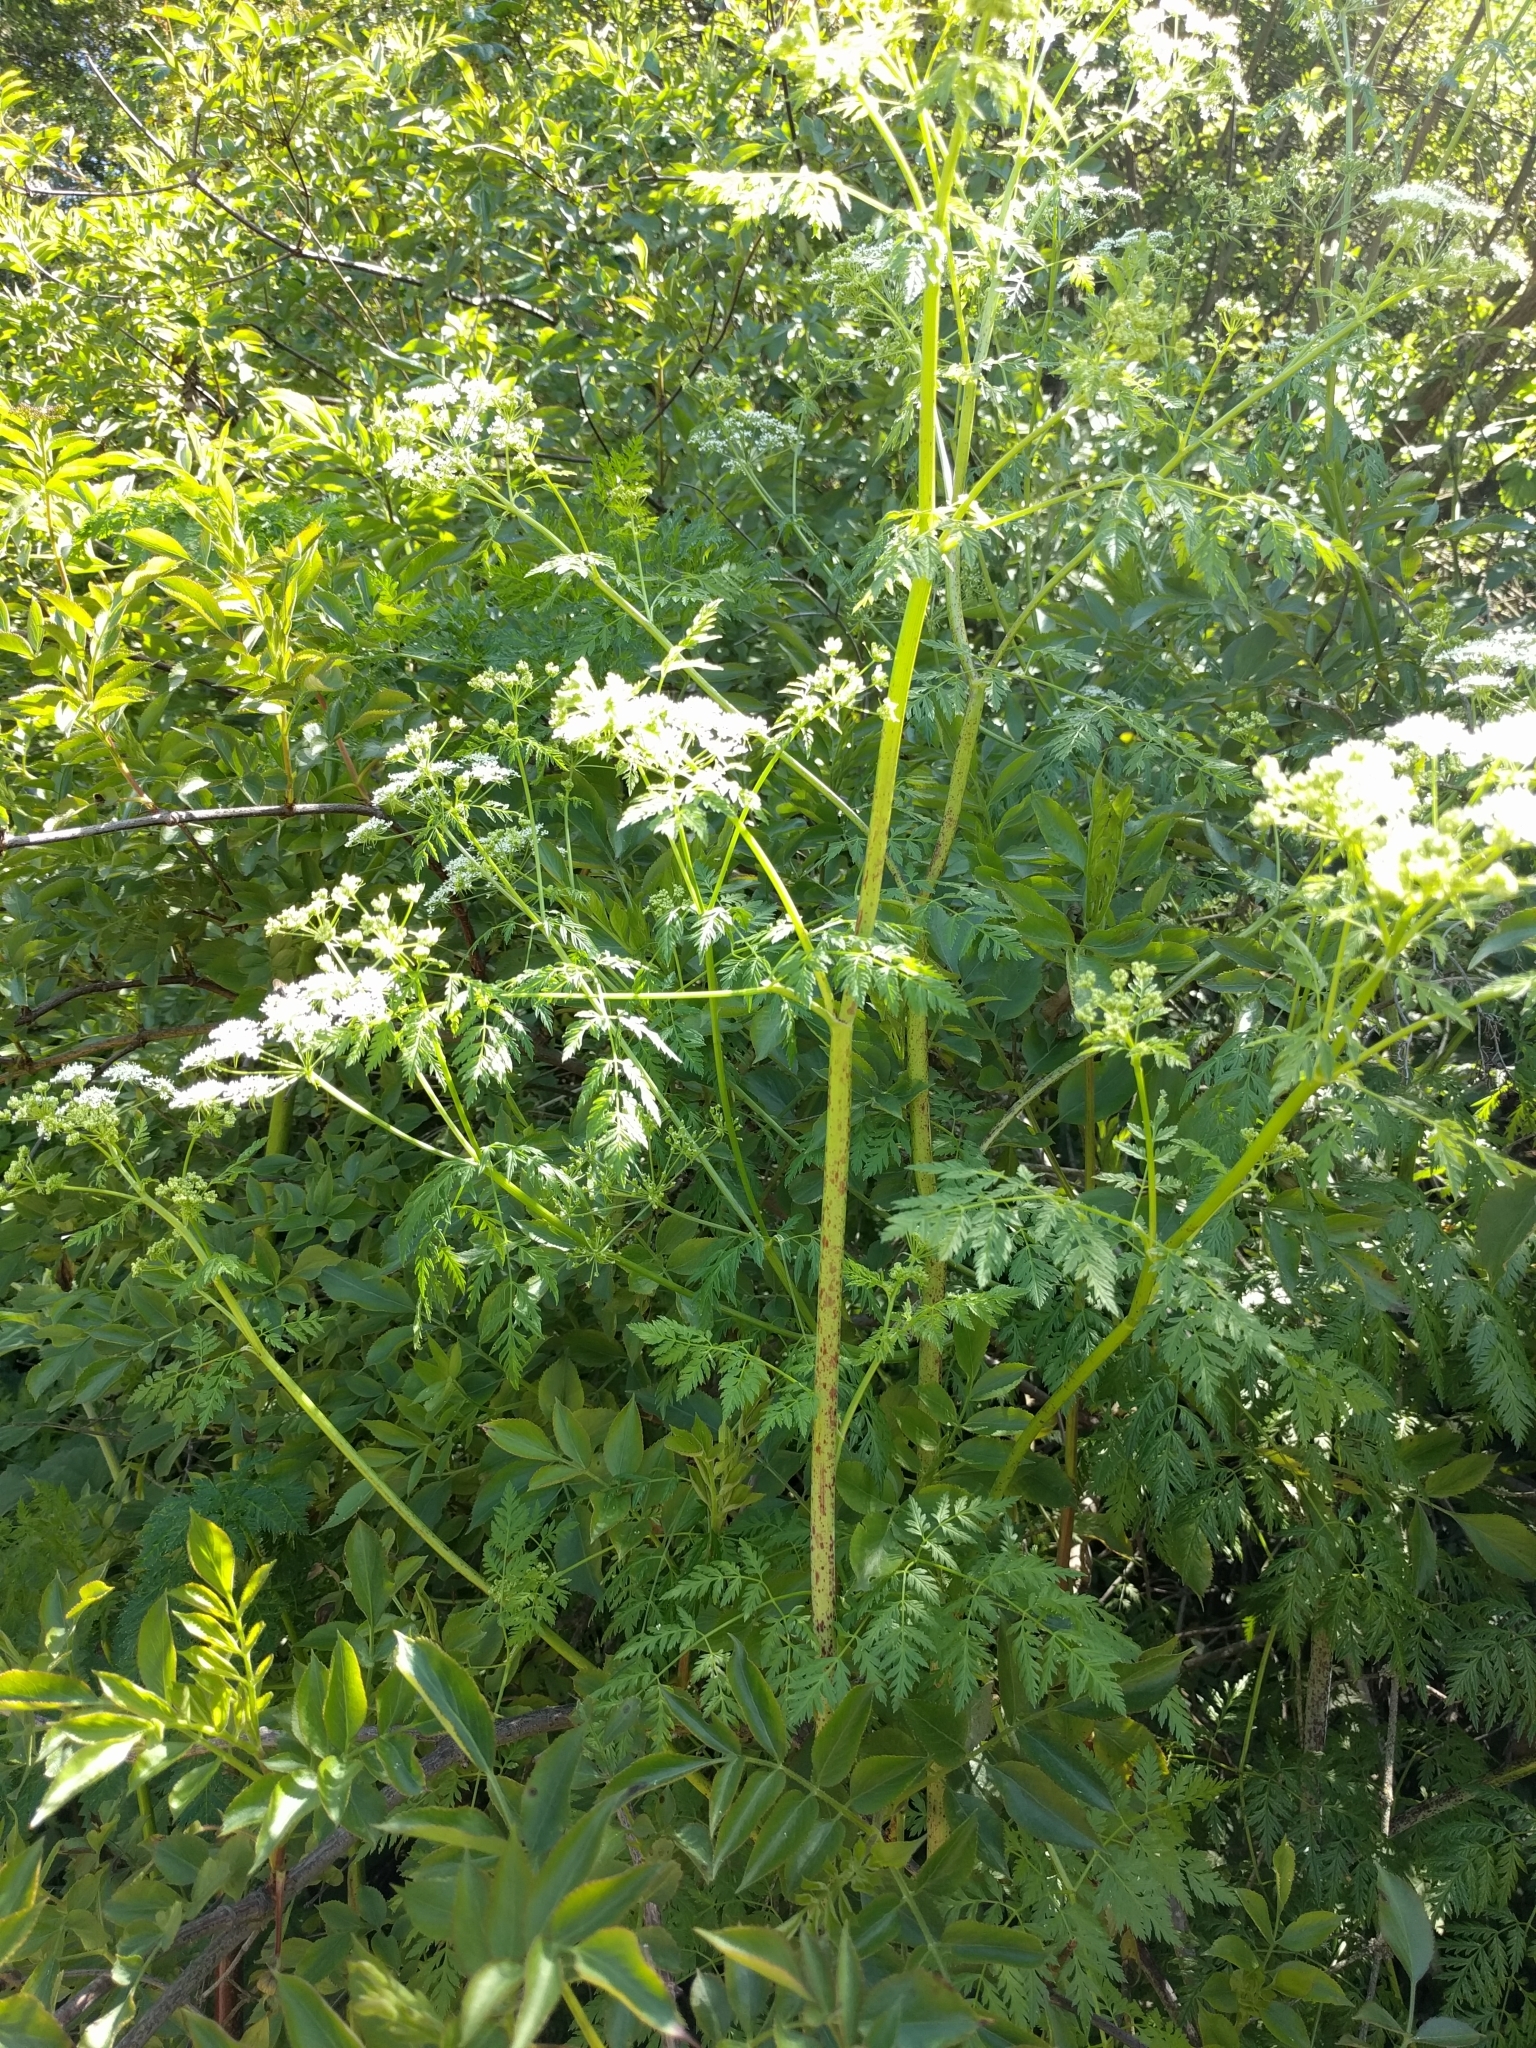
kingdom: Plantae
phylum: Tracheophyta
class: Magnoliopsida
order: Apiales
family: Apiaceae
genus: Conium
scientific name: Conium maculatum
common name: Hemlock
